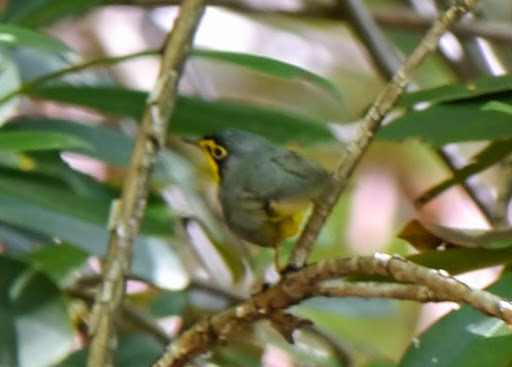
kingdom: Animalia
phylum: Chordata
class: Aves
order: Passeriformes
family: Parulidae
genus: Geothlypis
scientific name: Geothlypis formosa
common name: Kentucky warbler
